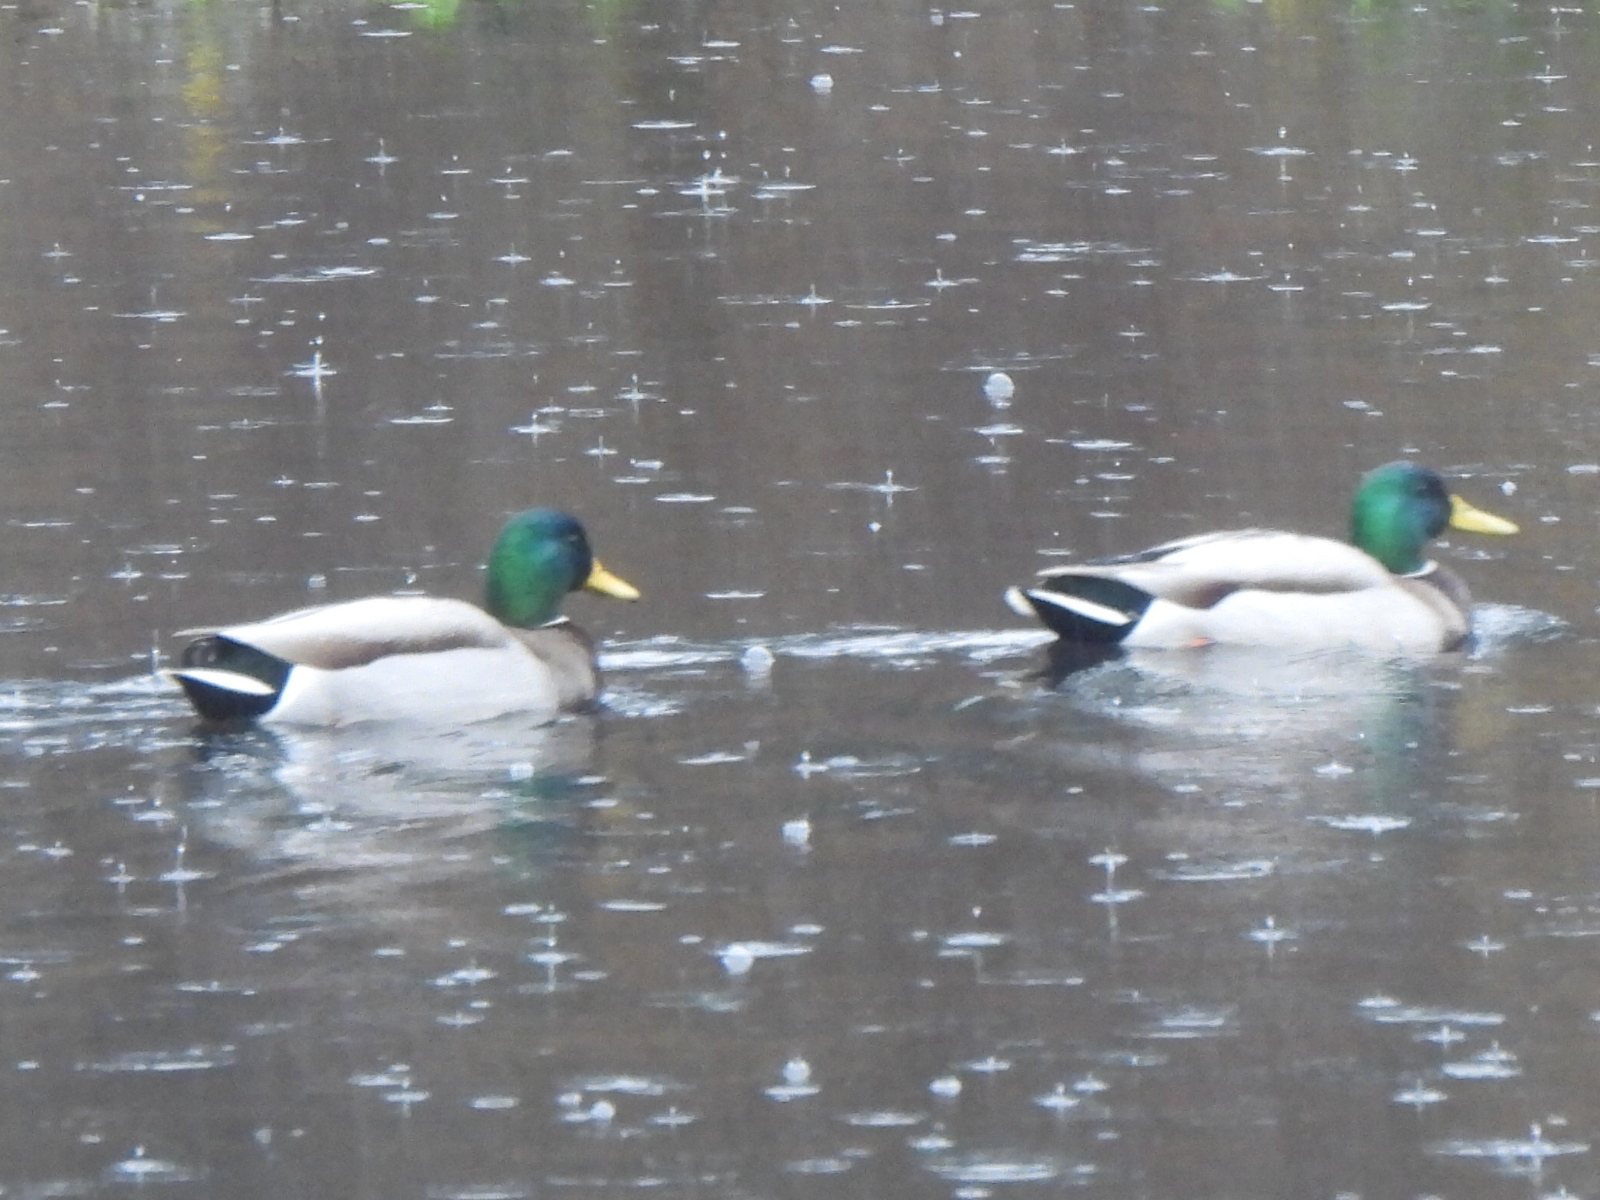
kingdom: Animalia
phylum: Chordata
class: Aves
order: Anseriformes
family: Anatidae
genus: Anas
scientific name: Anas platyrhynchos
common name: Mallard
